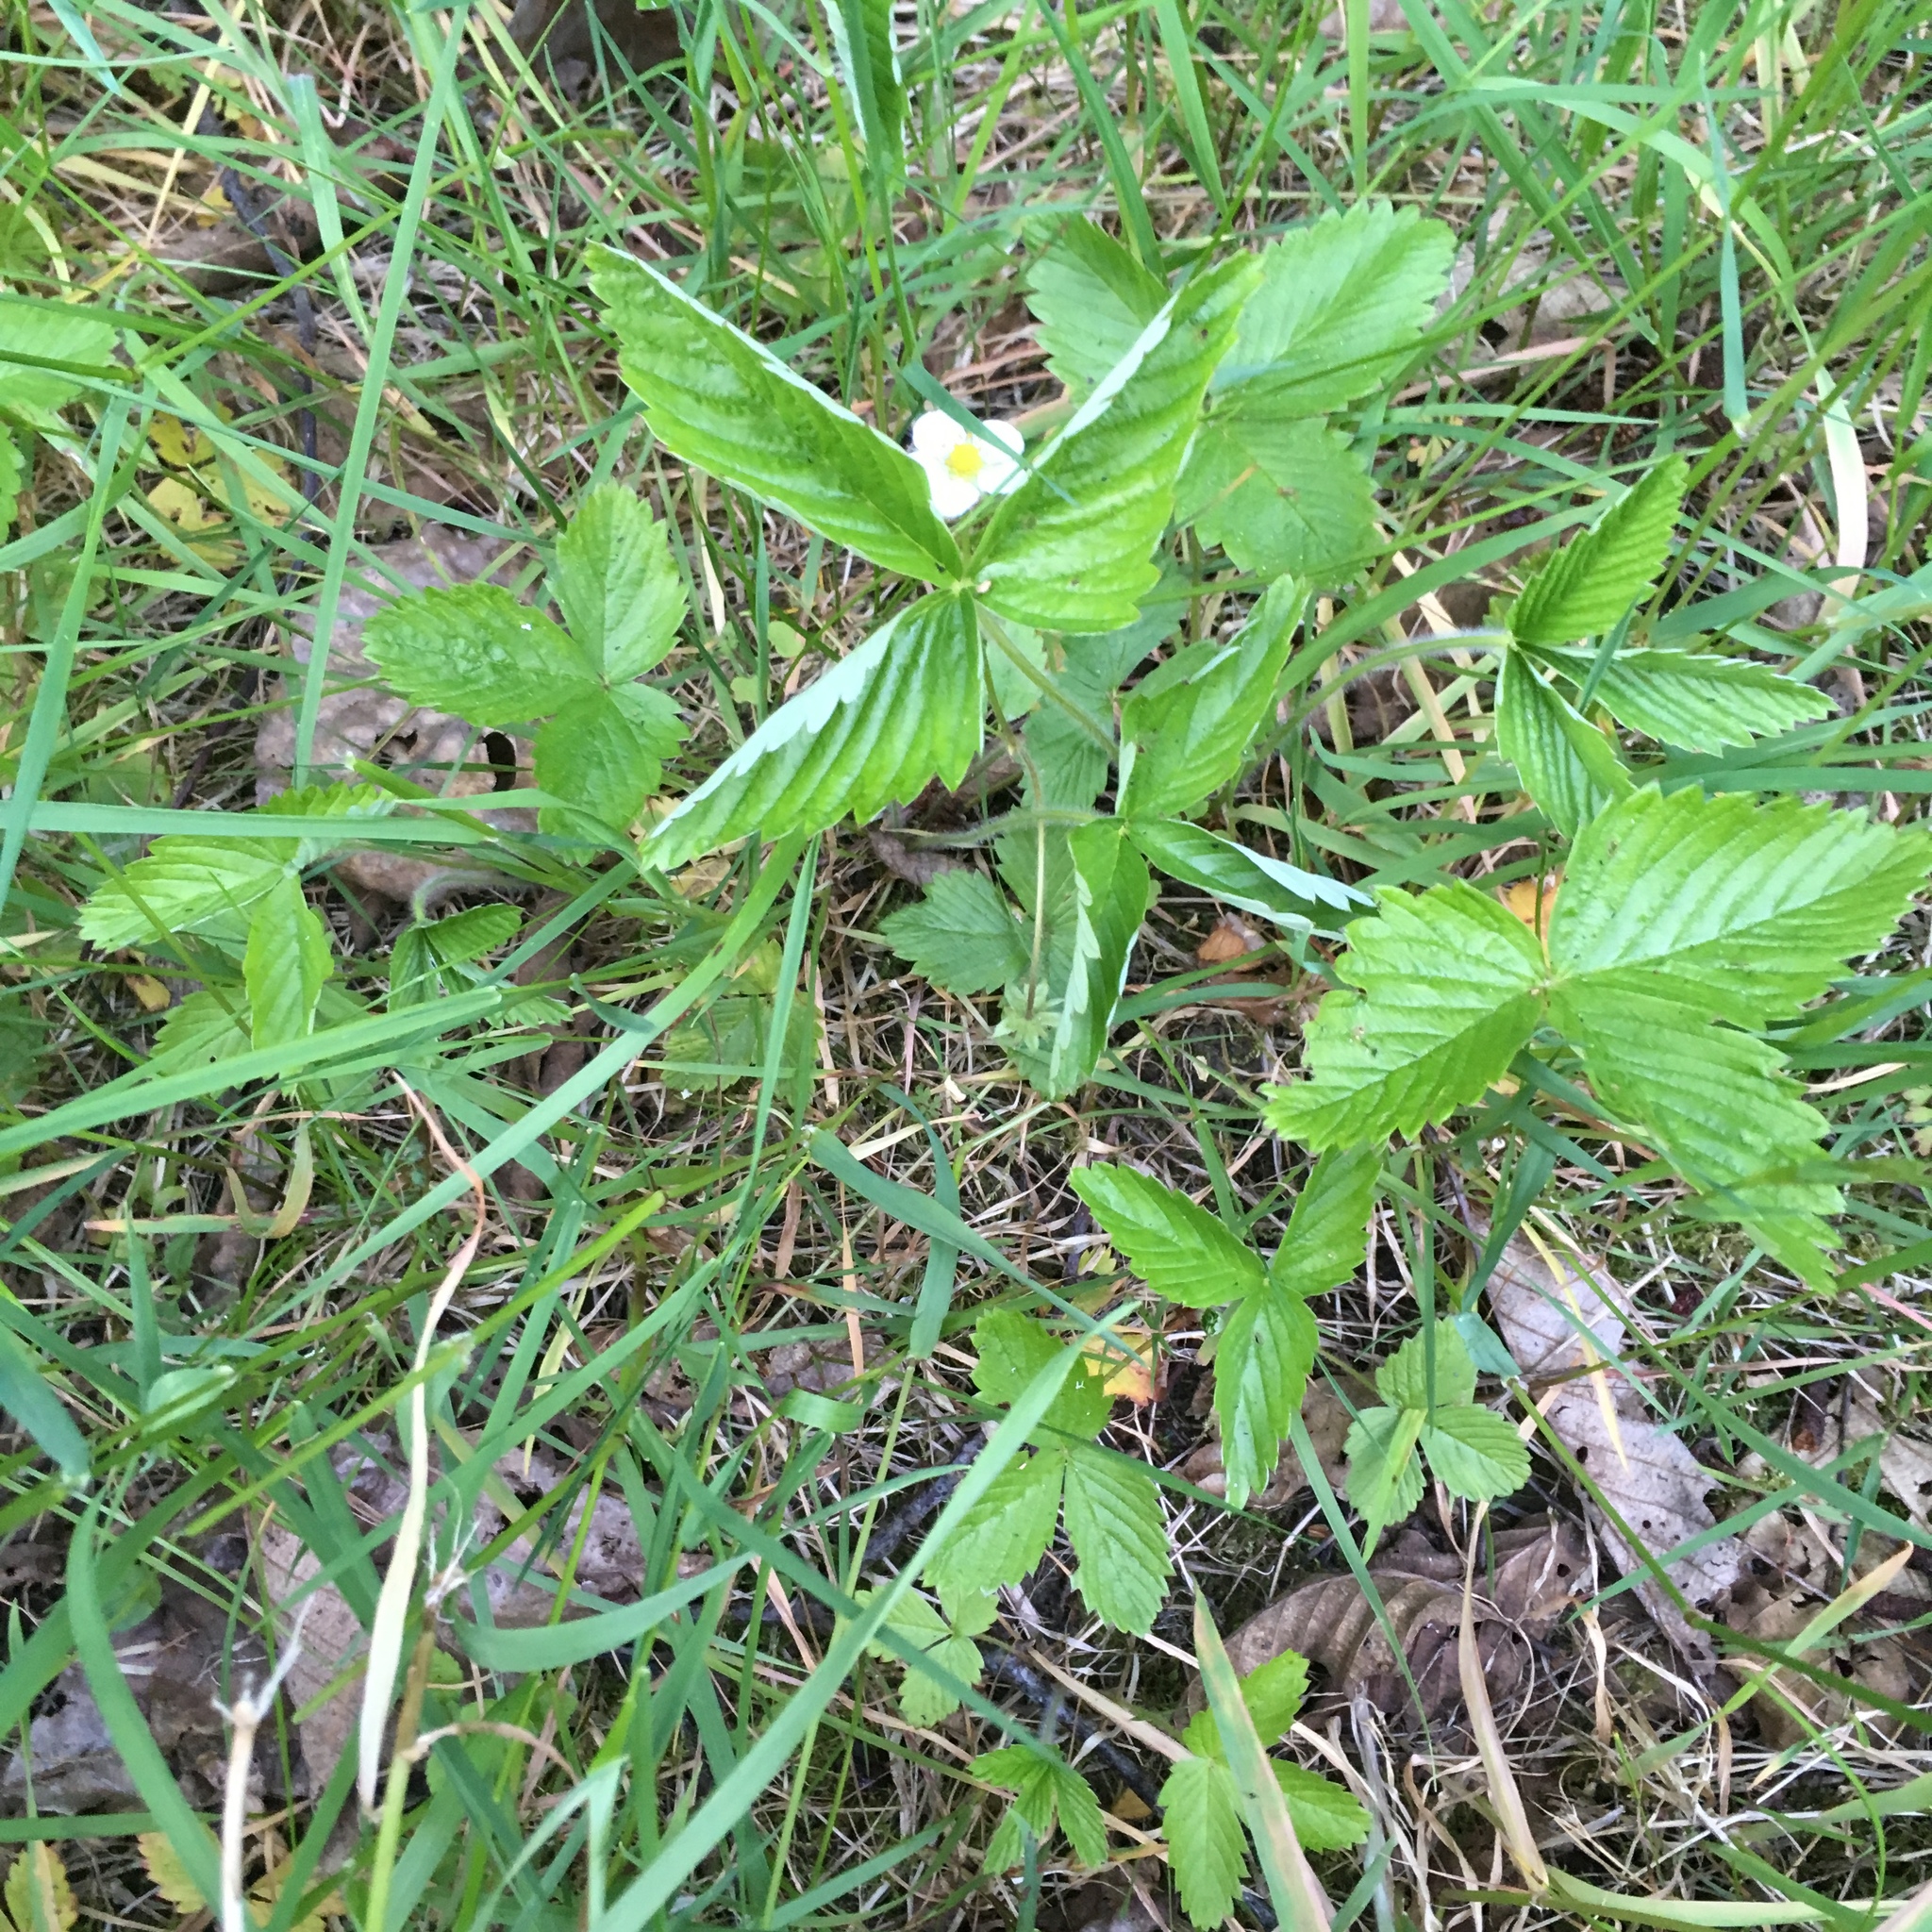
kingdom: Plantae
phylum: Tracheophyta
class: Magnoliopsida
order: Rosales
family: Rosaceae
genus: Fragaria
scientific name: Fragaria vesca
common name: Wild strawberry
